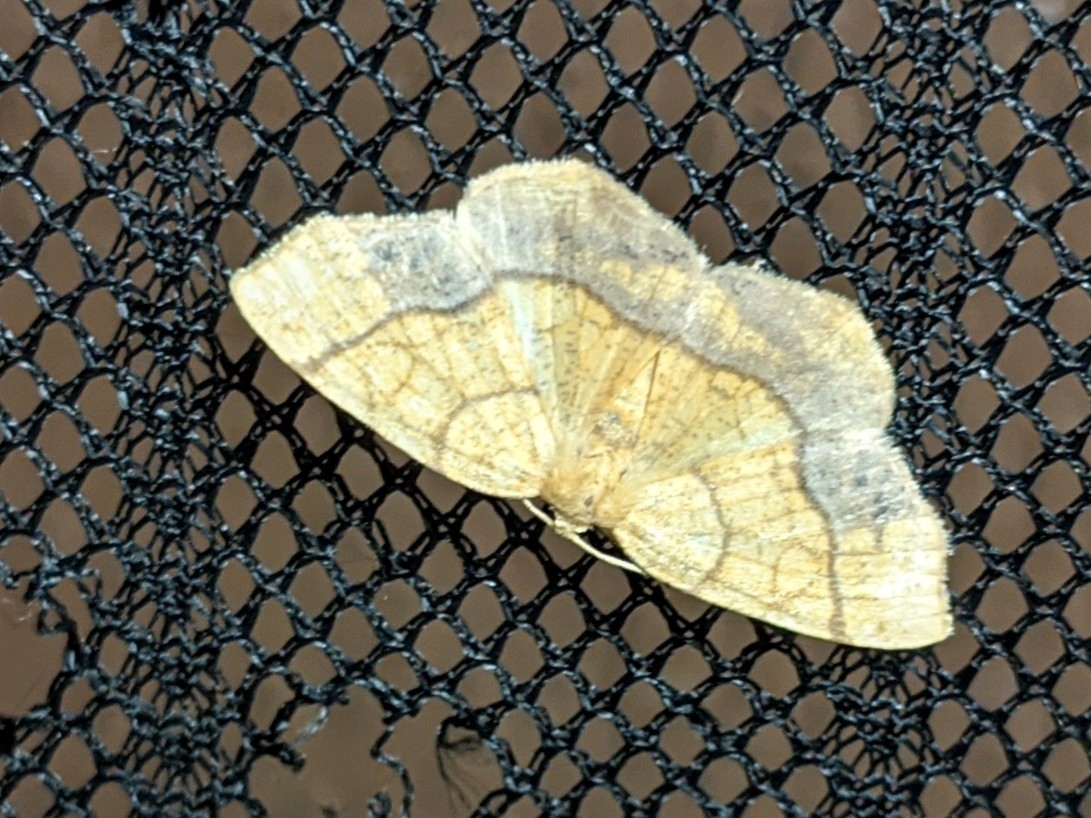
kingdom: Animalia
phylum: Arthropoda
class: Insecta
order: Lepidoptera
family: Geometridae
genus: Nematocampa
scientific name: Nematocampa resistaria
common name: Horned spanworm moth
